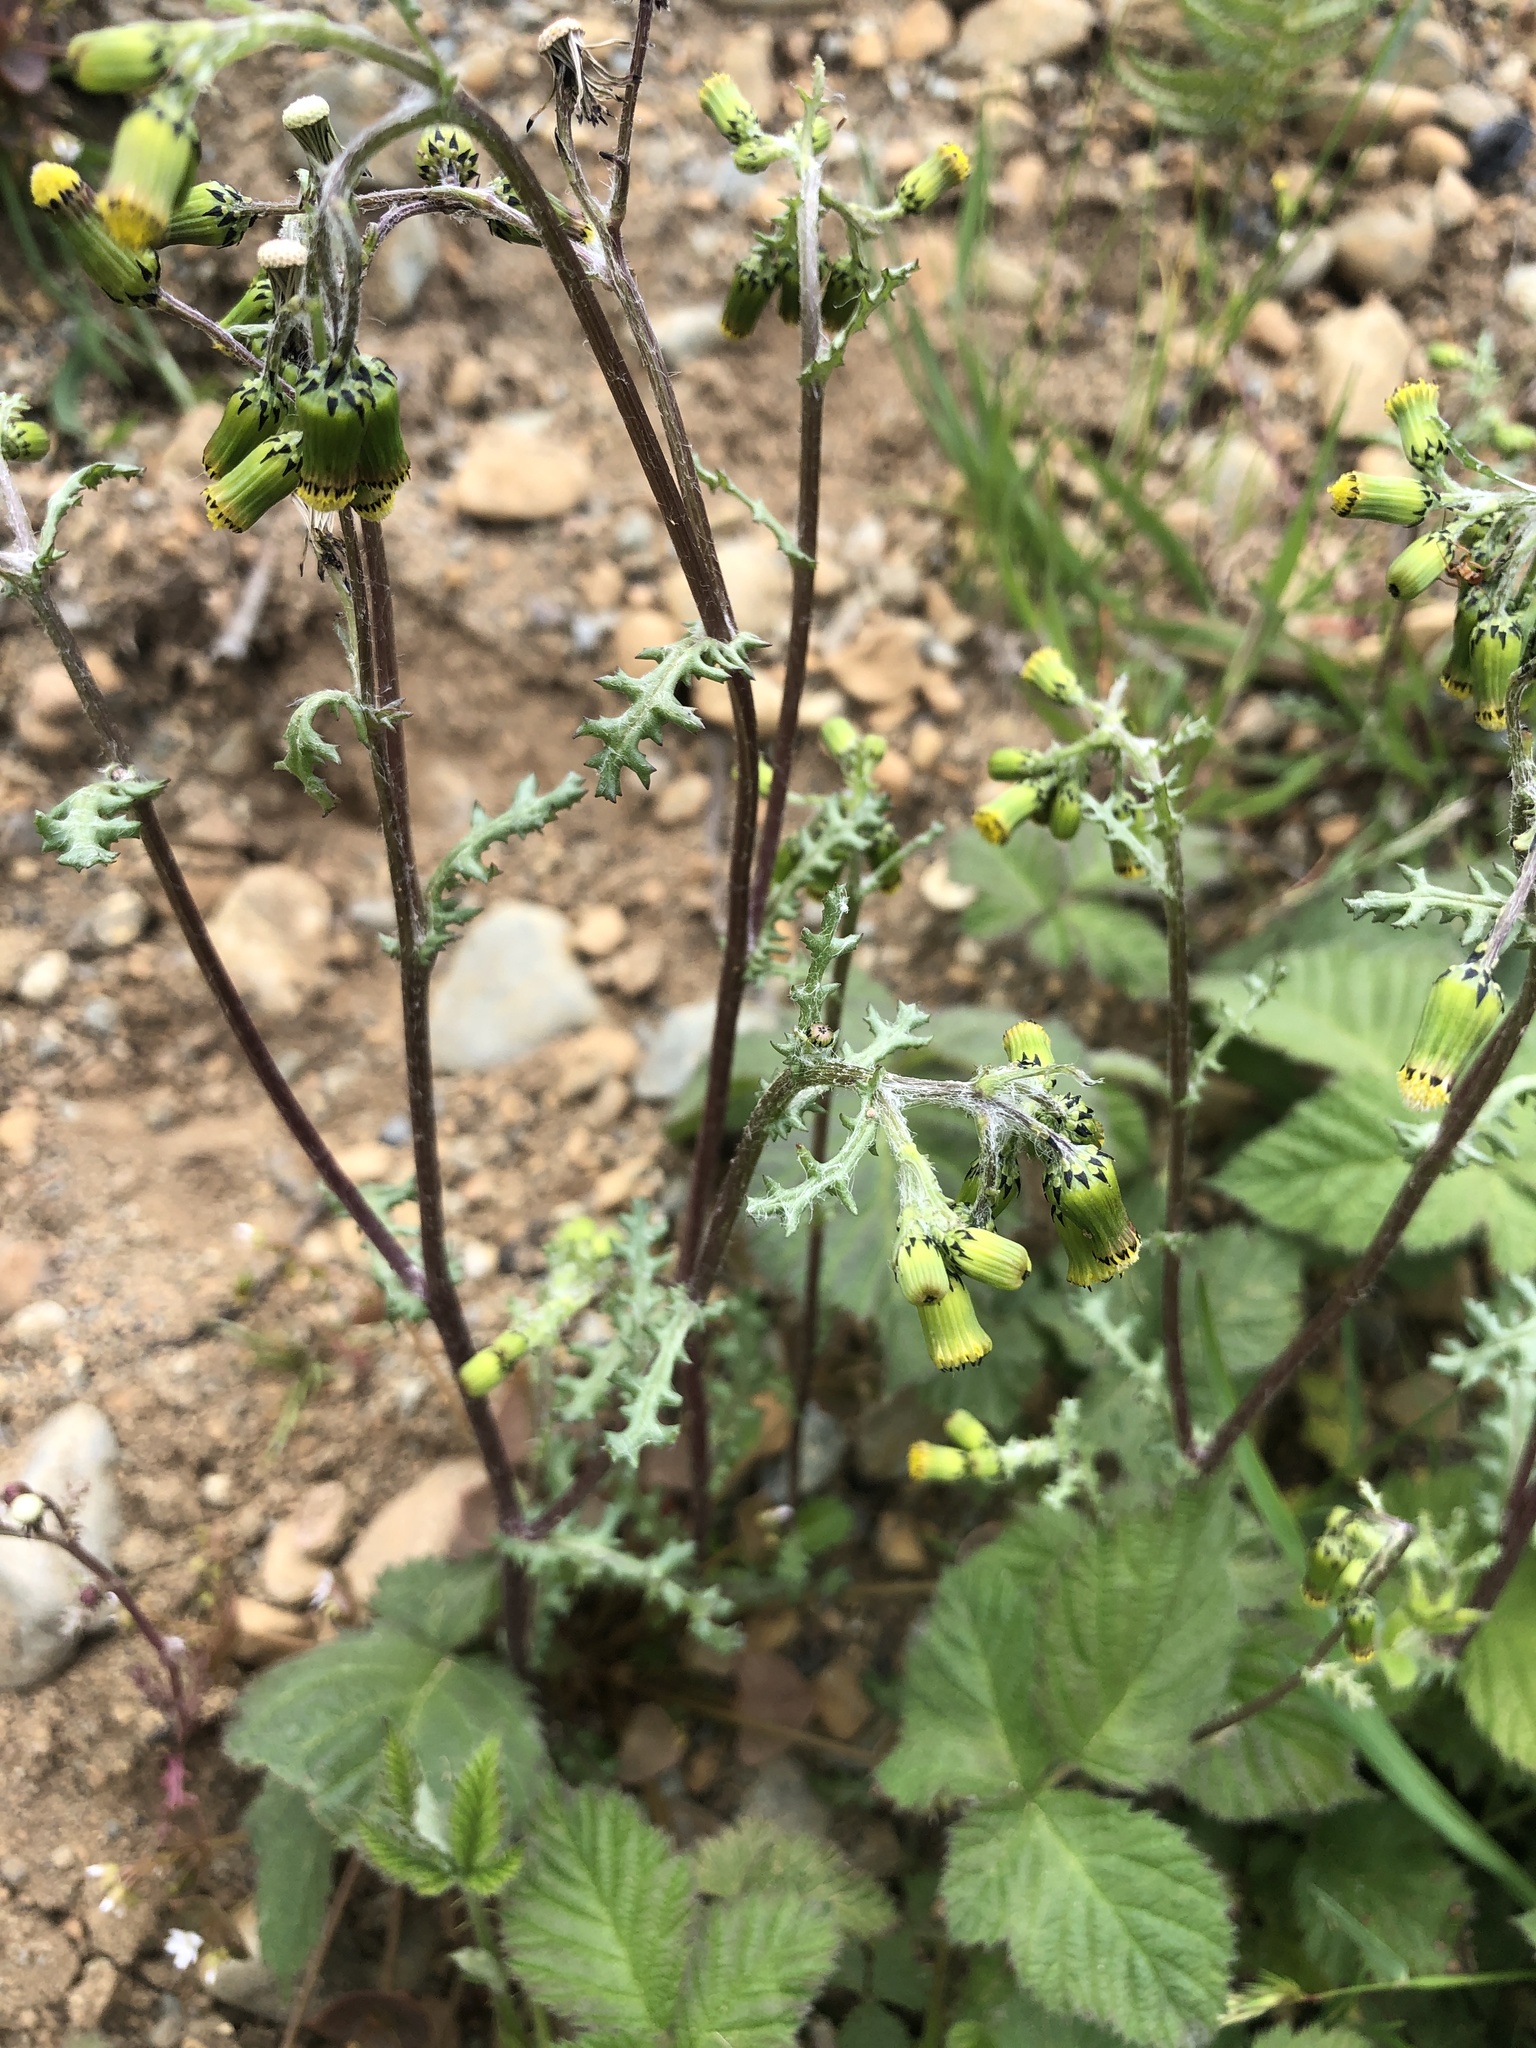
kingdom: Plantae
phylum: Tracheophyta
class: Magnoliopsida
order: Asterales
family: Asteraceae
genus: Senecio
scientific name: Senecio vulgaris
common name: Old-man-in-the-spring
